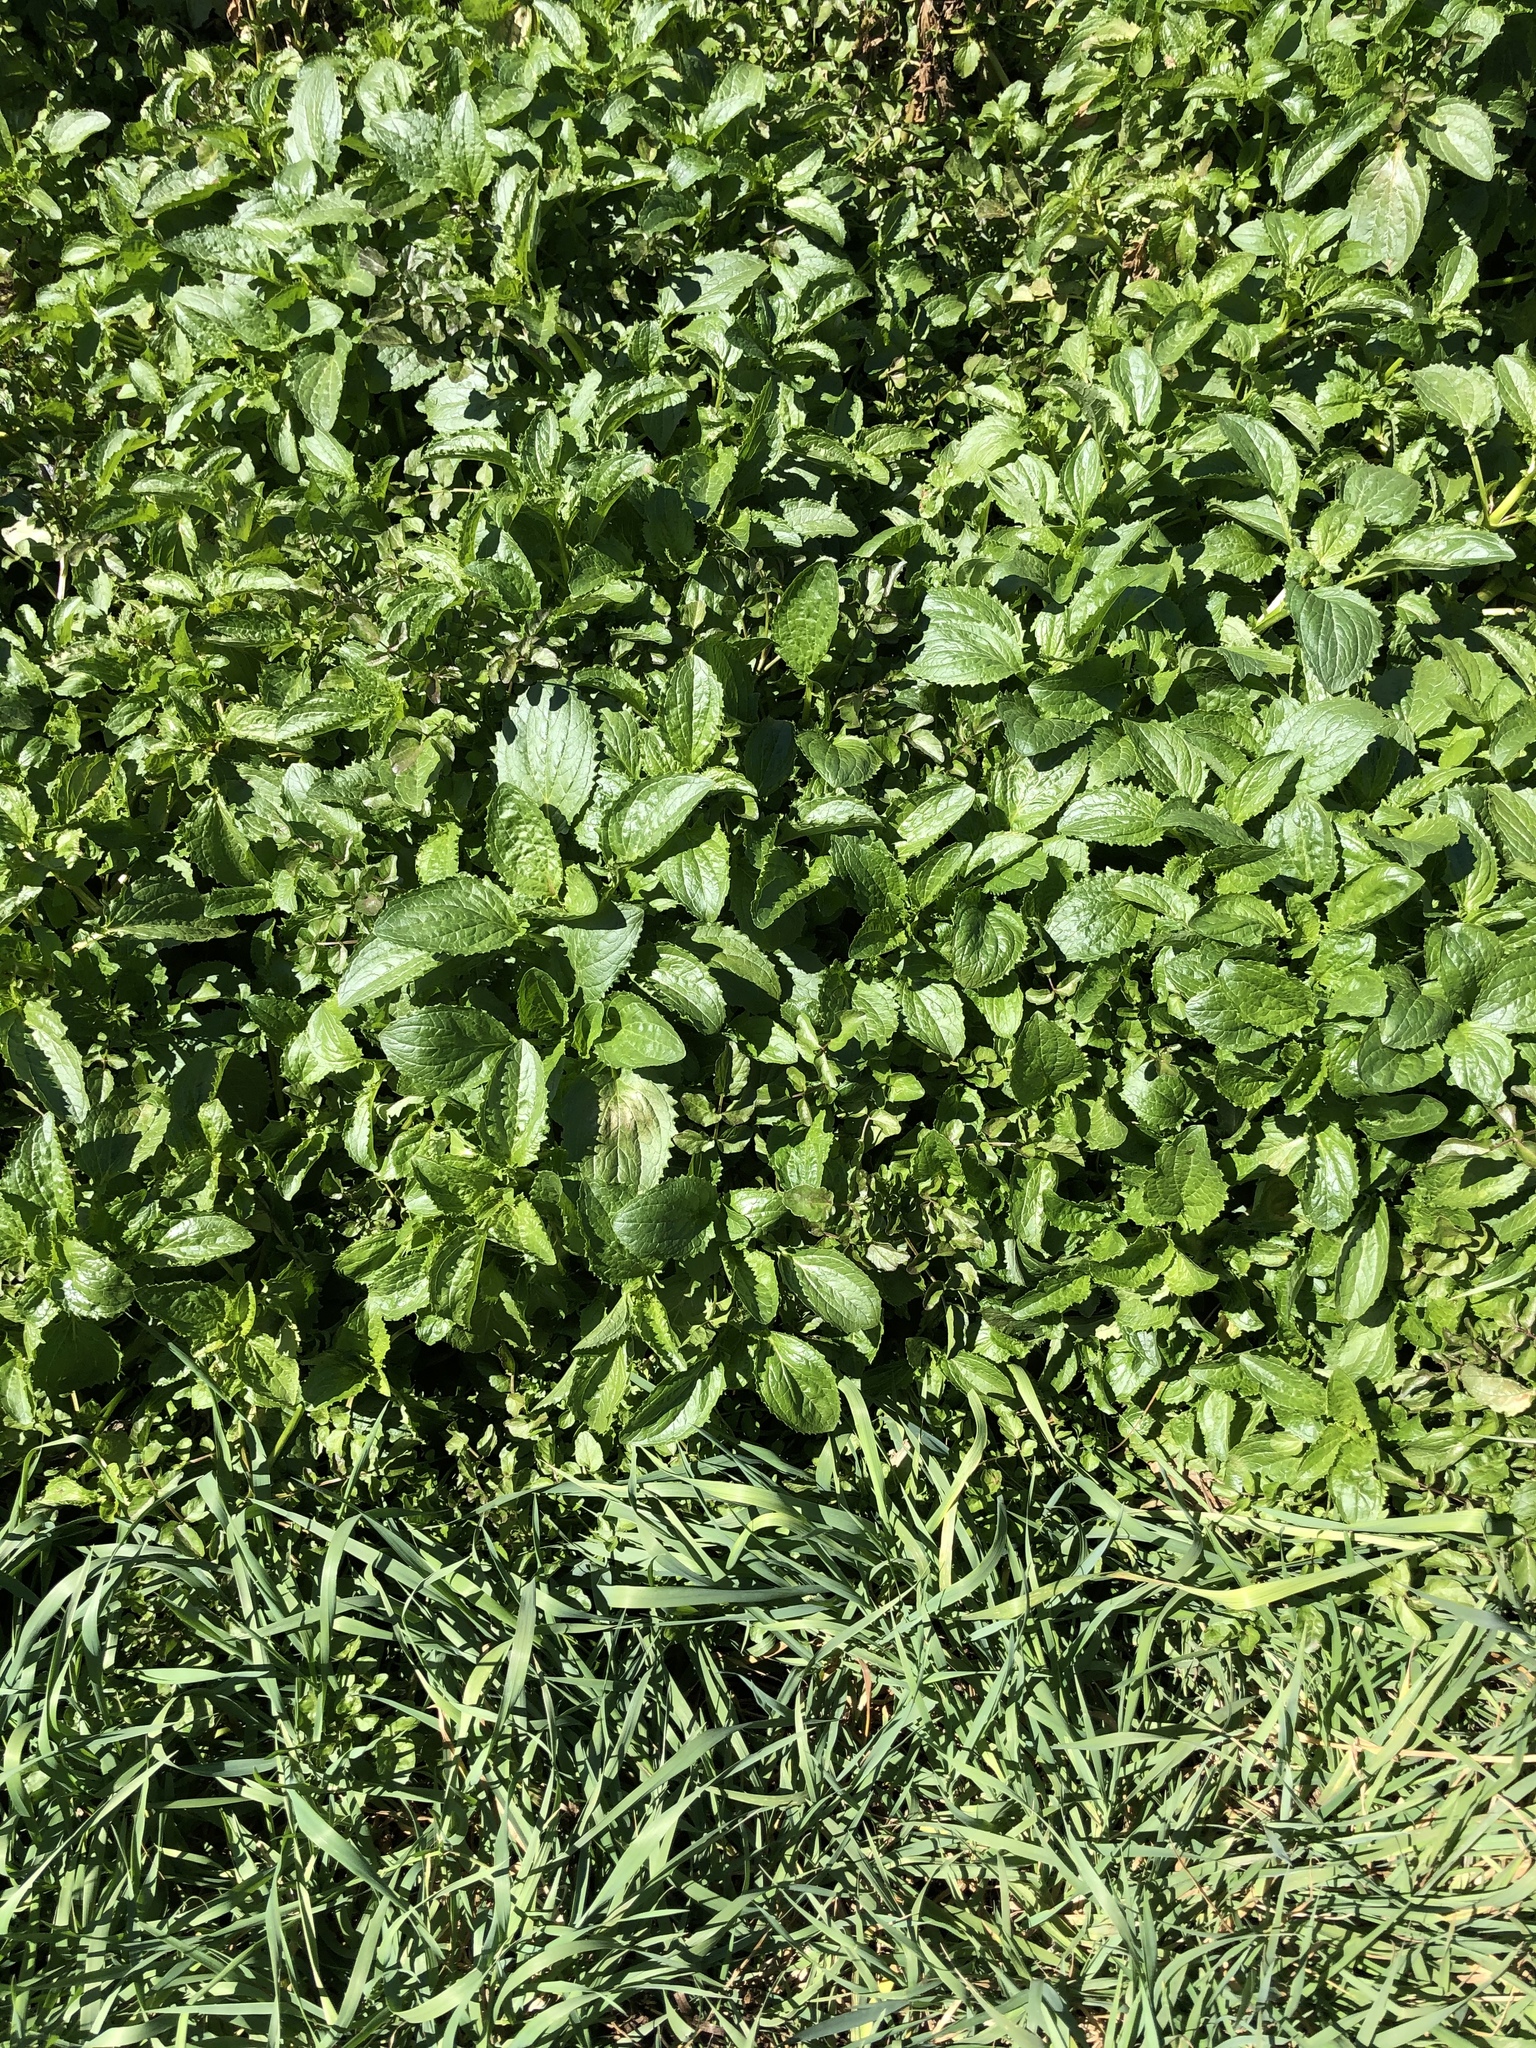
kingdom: Plantae
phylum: Tracheophyta
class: Magnoliopsida
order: Lamiales
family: Phrymaceae
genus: Erythranthe
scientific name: Erythranthe guttata
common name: Monkeyflower
